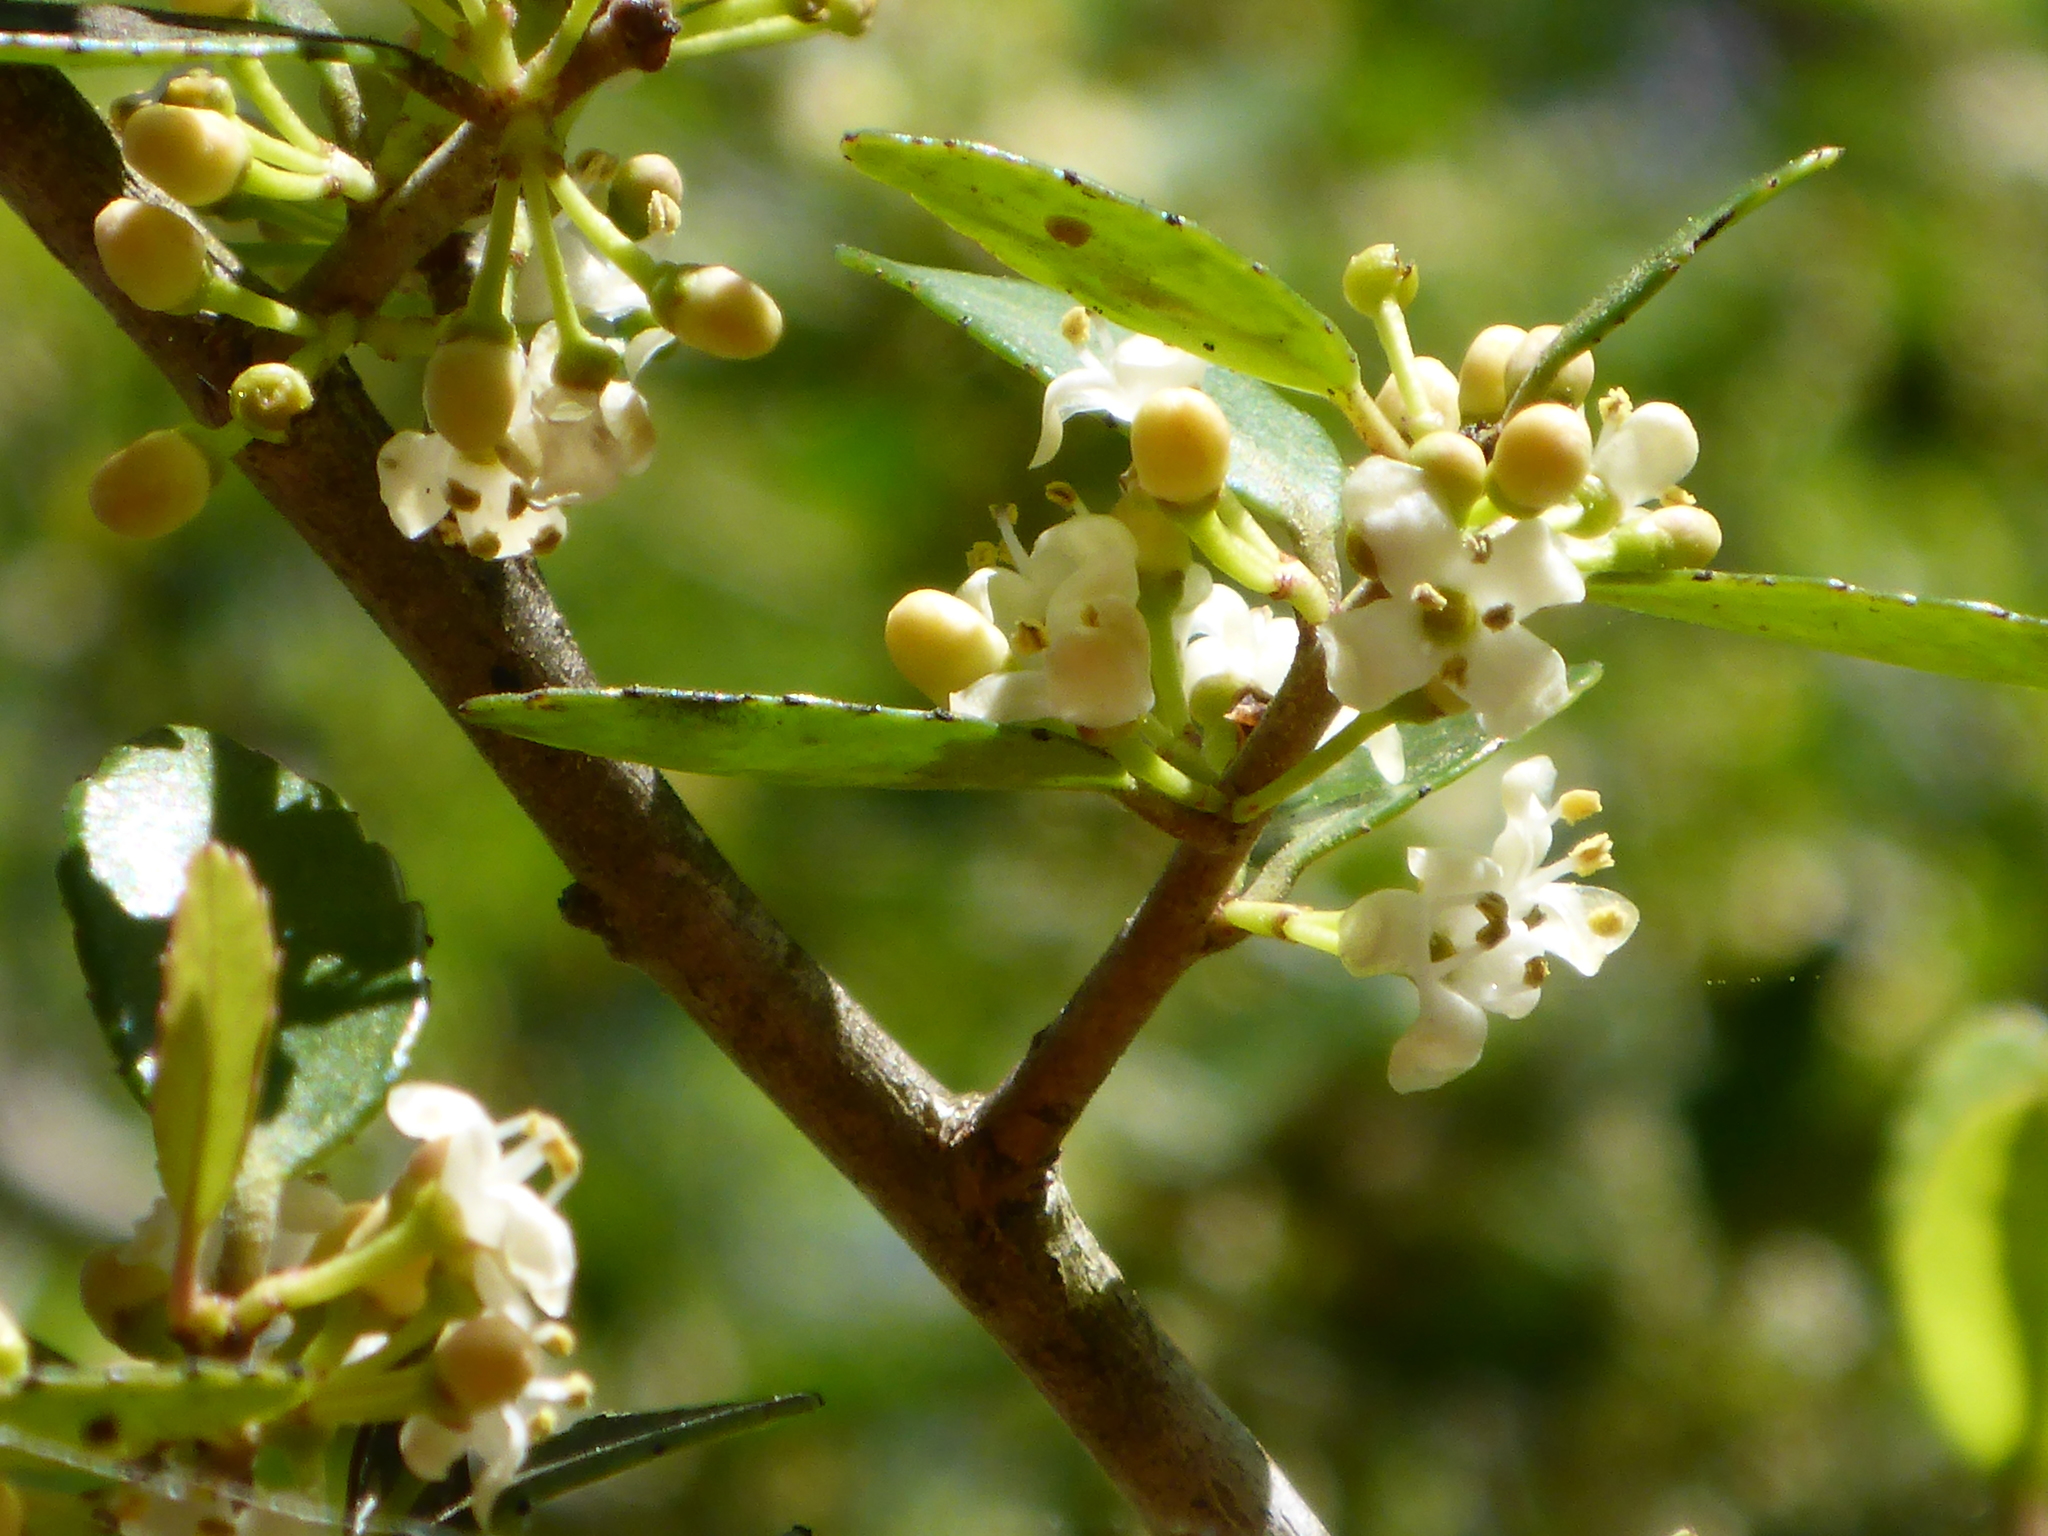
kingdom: Plantae
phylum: Tracheophyta
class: Magnoliopsida
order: Aquifoliales
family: Aquifoliaceae
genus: Ilex
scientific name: Ilex vomitoria
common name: Yaupon holly
